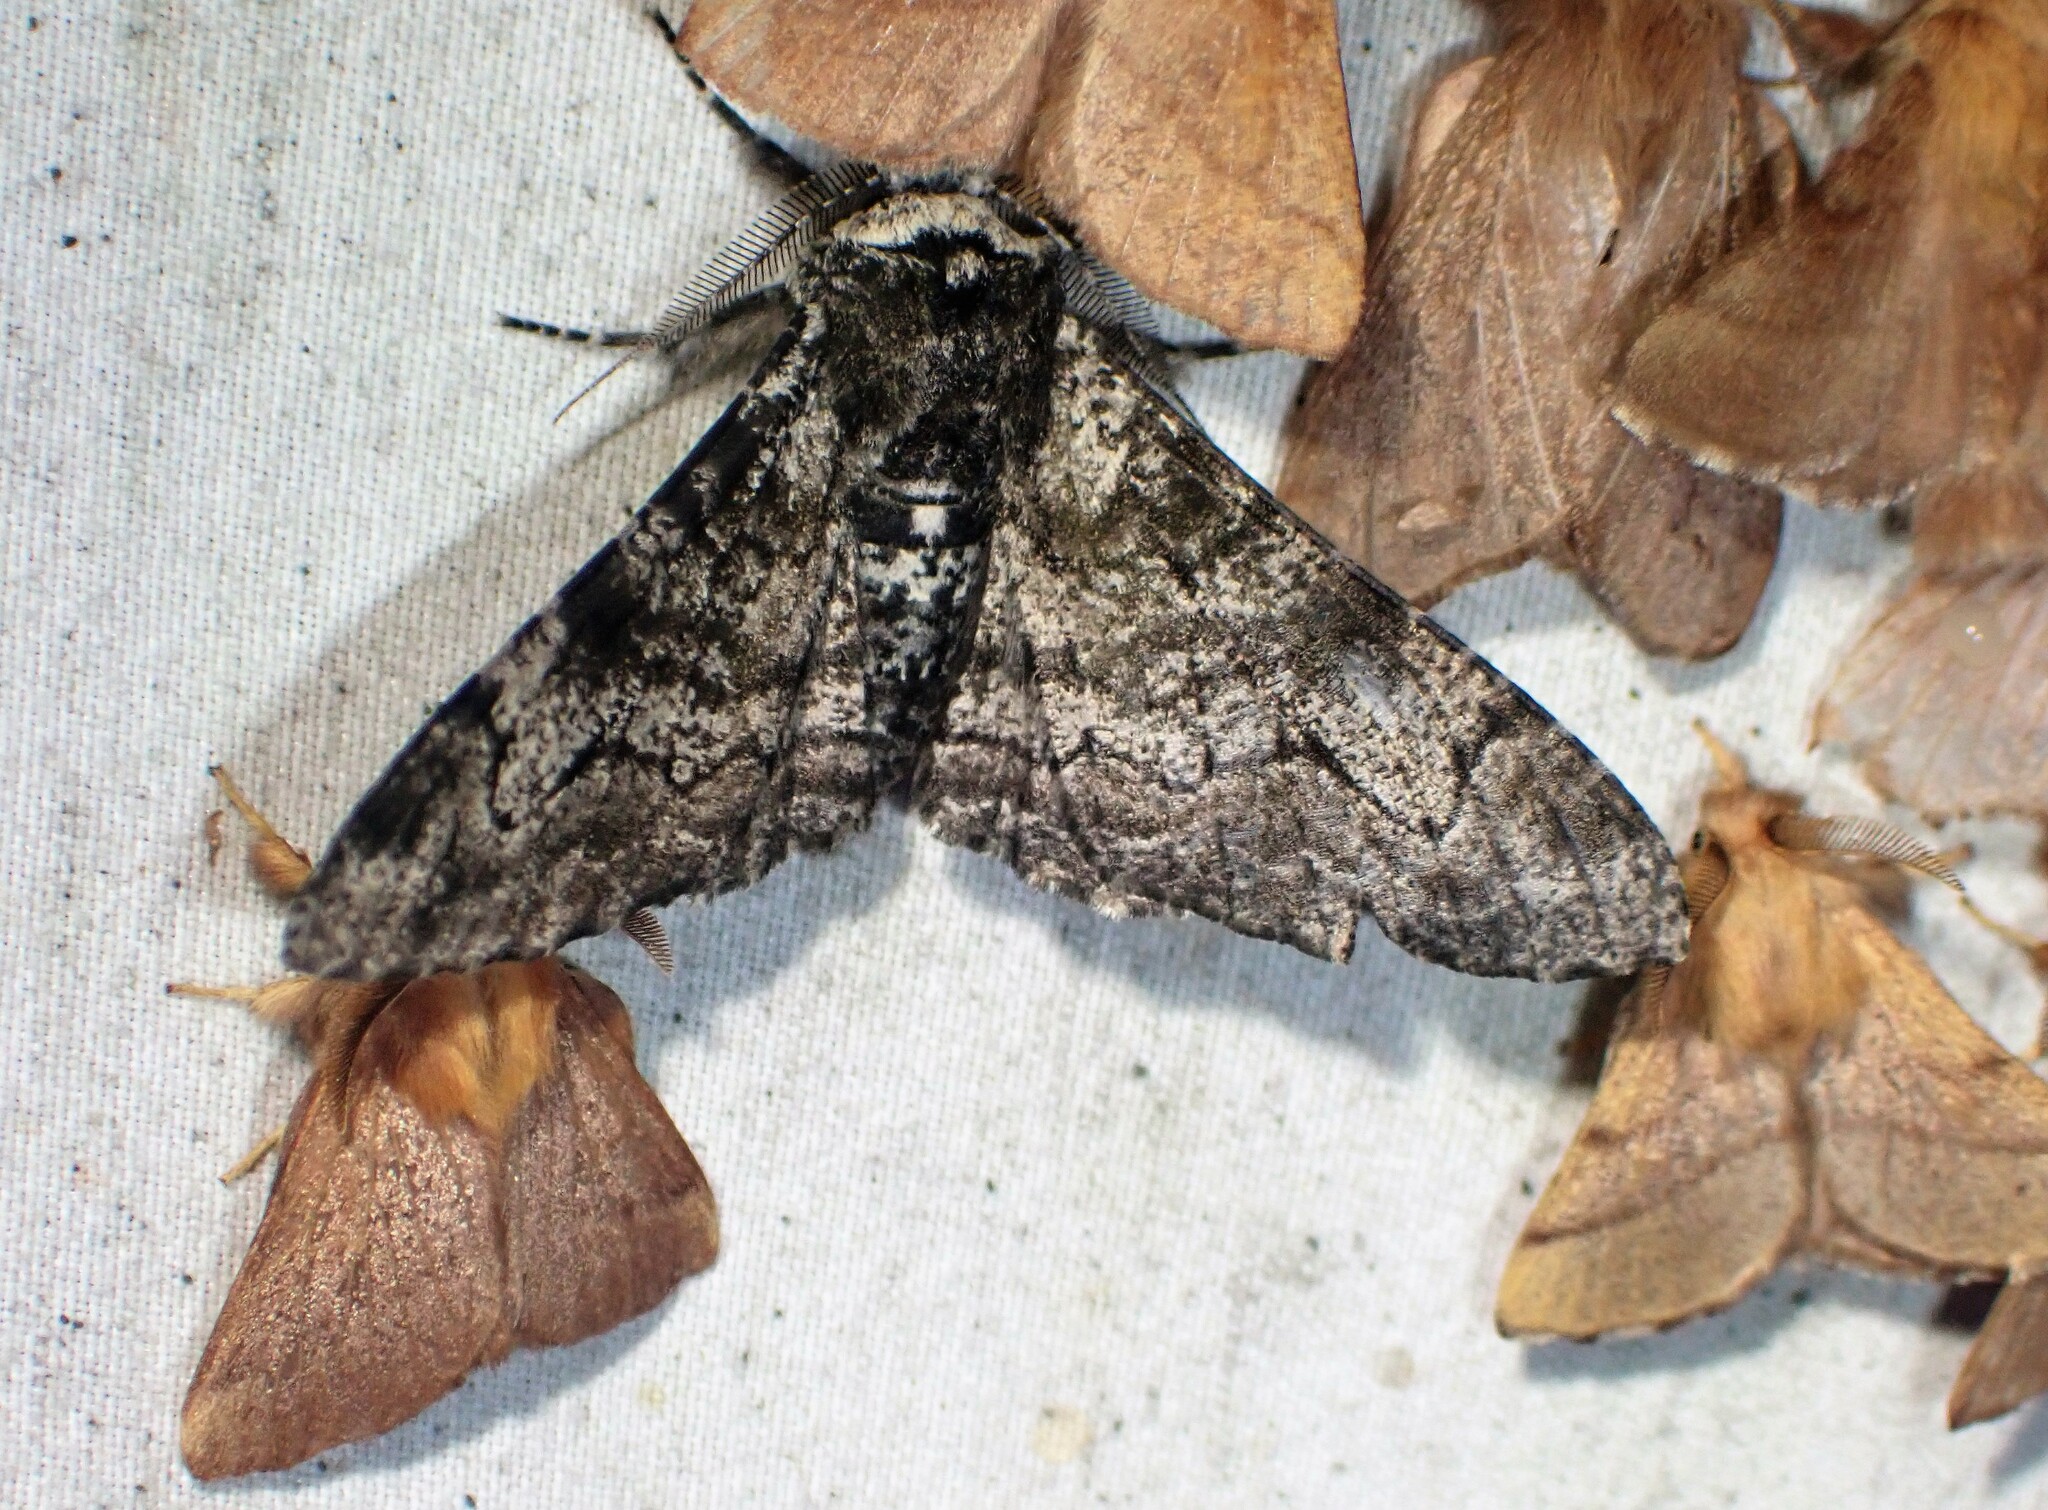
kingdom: Animalia
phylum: Arthropoda
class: Insecta
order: Lepidoptera
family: Geometridae
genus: Biston
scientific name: Biston betularia
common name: Peppered moth
